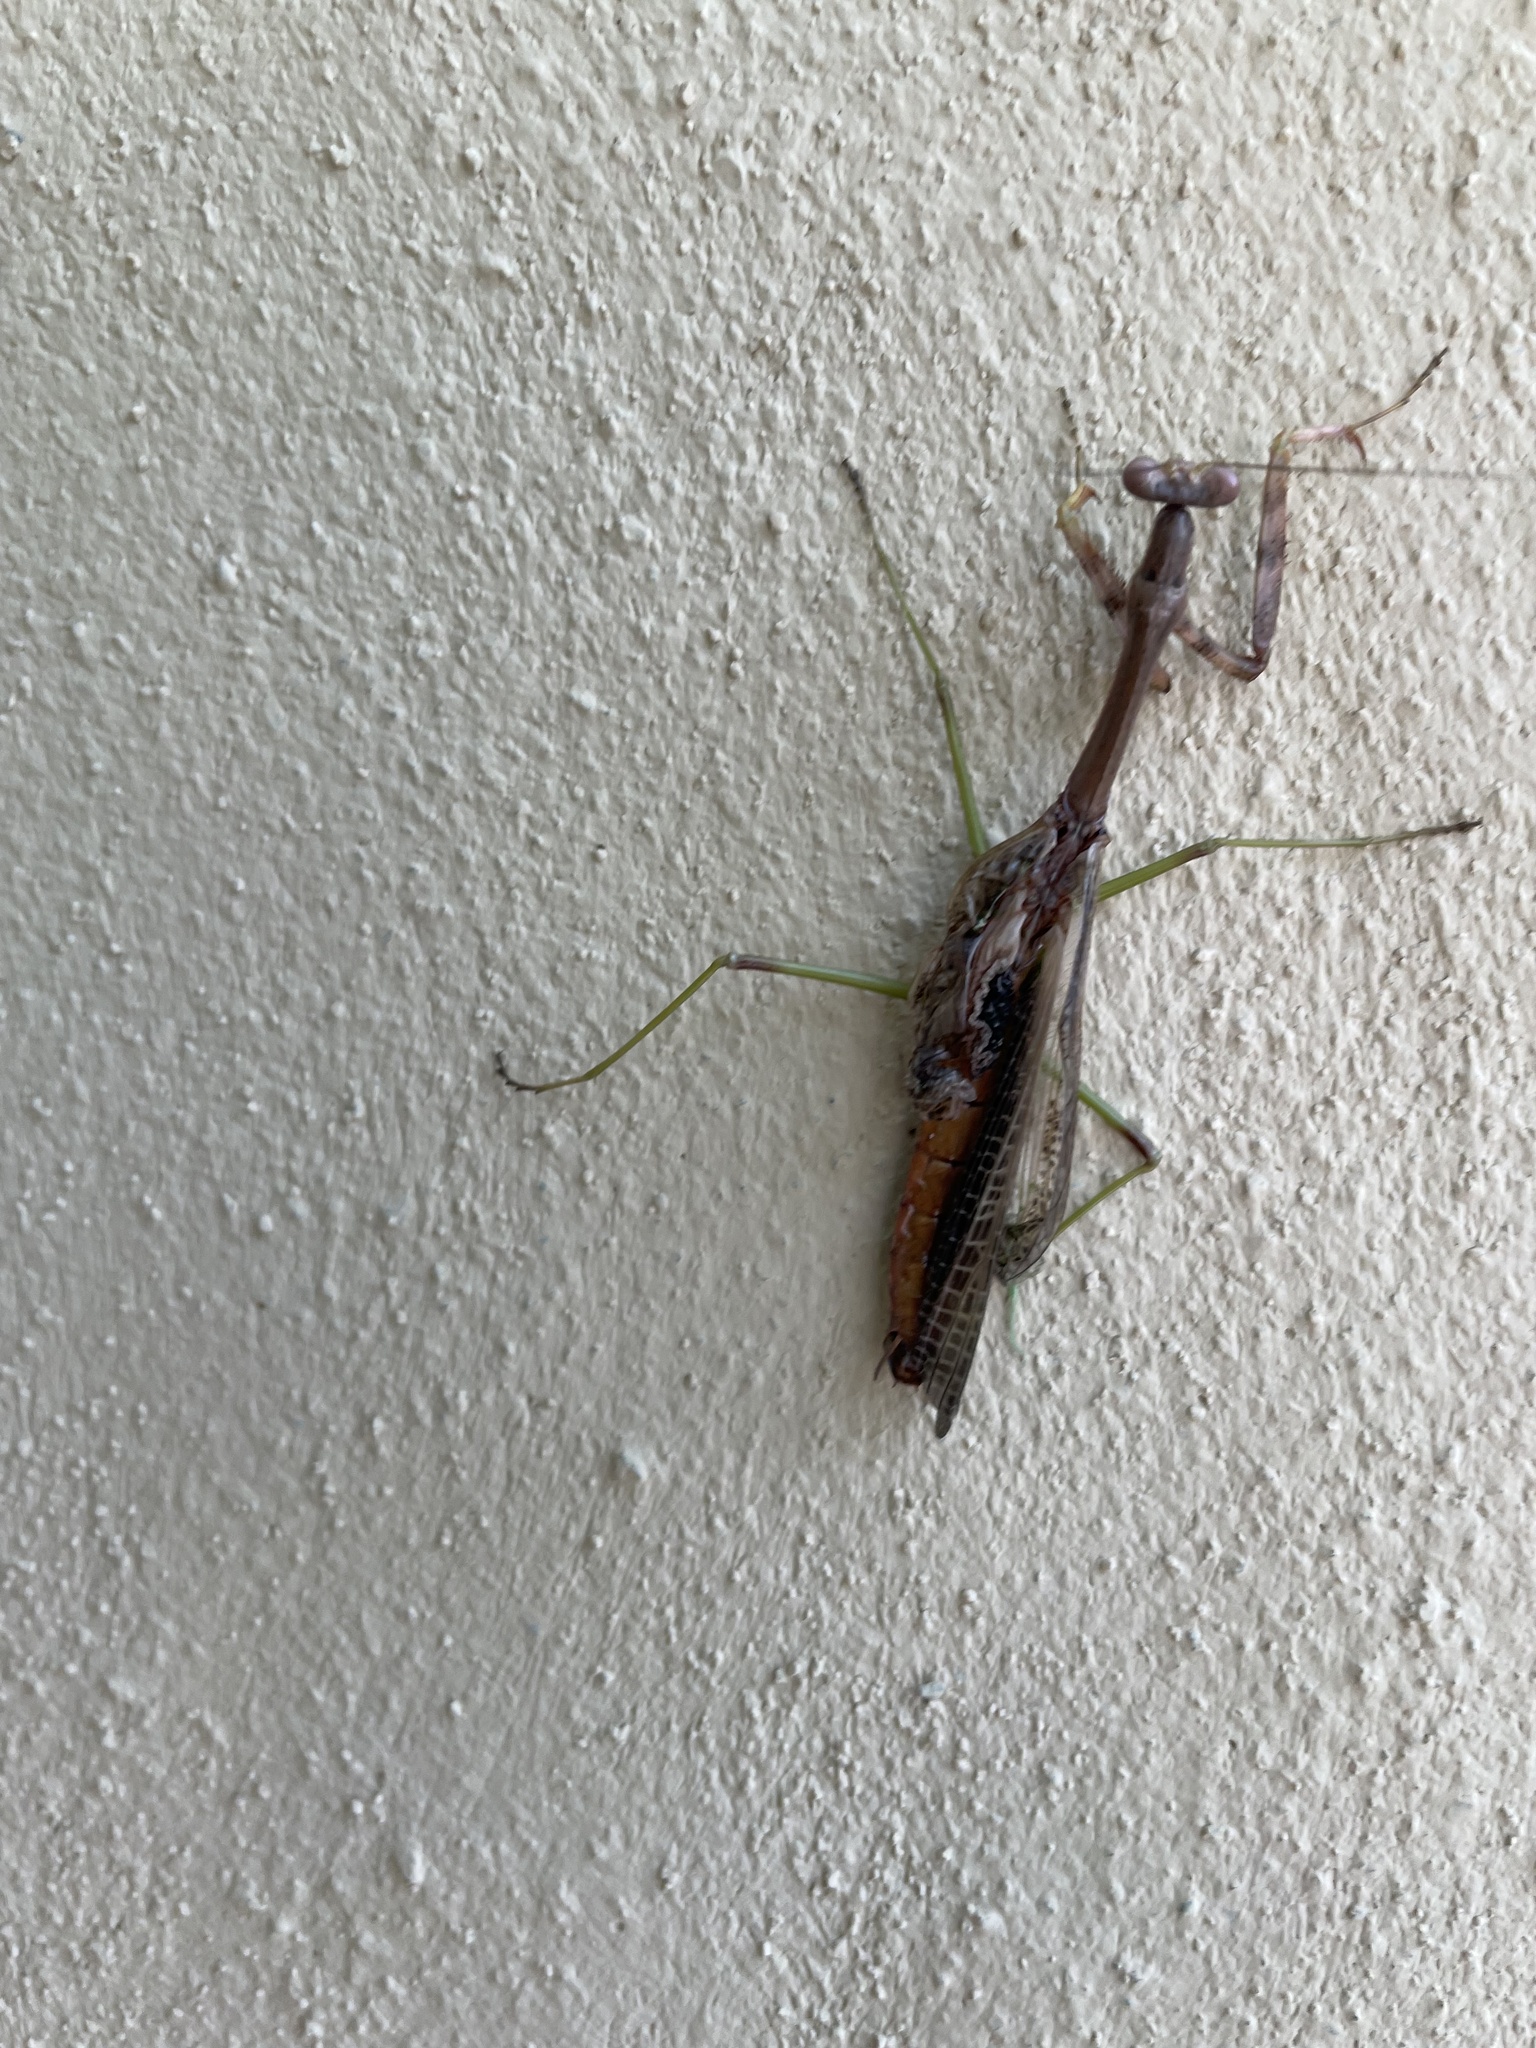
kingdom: Animalia
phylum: Arthropoda
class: Insecta
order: Mantodea
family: Mantidae
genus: Stagmomantis
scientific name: Stagmomantis carolina
